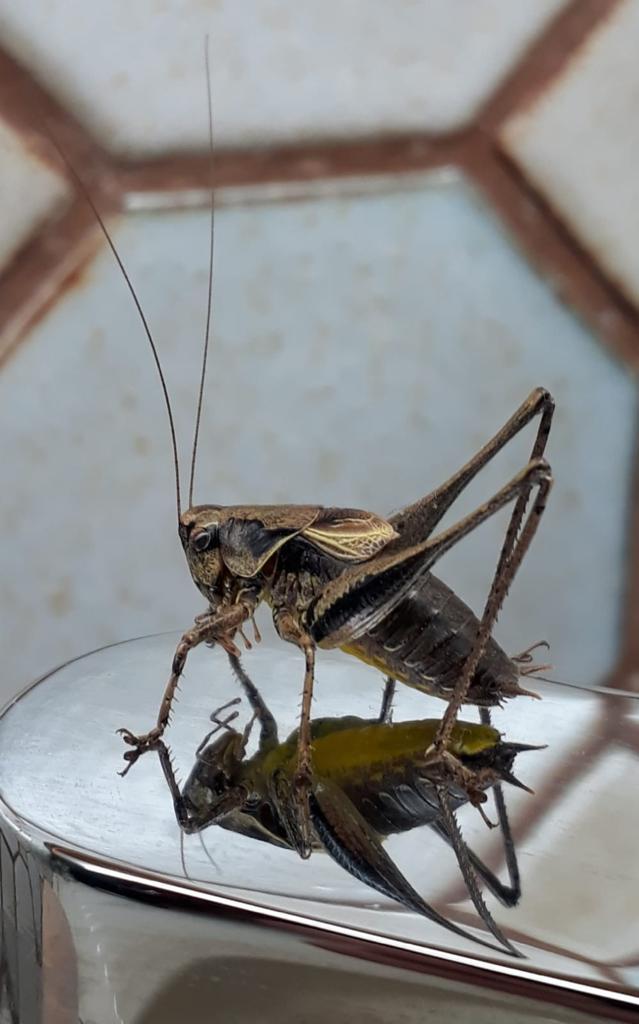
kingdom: Animalia
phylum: Arthropoda
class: Insecta
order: Orthoptera
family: Tettigoniidae
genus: Pholidoptera
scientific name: Pholidoptera griseoaptera
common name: Dark bush-cricket
